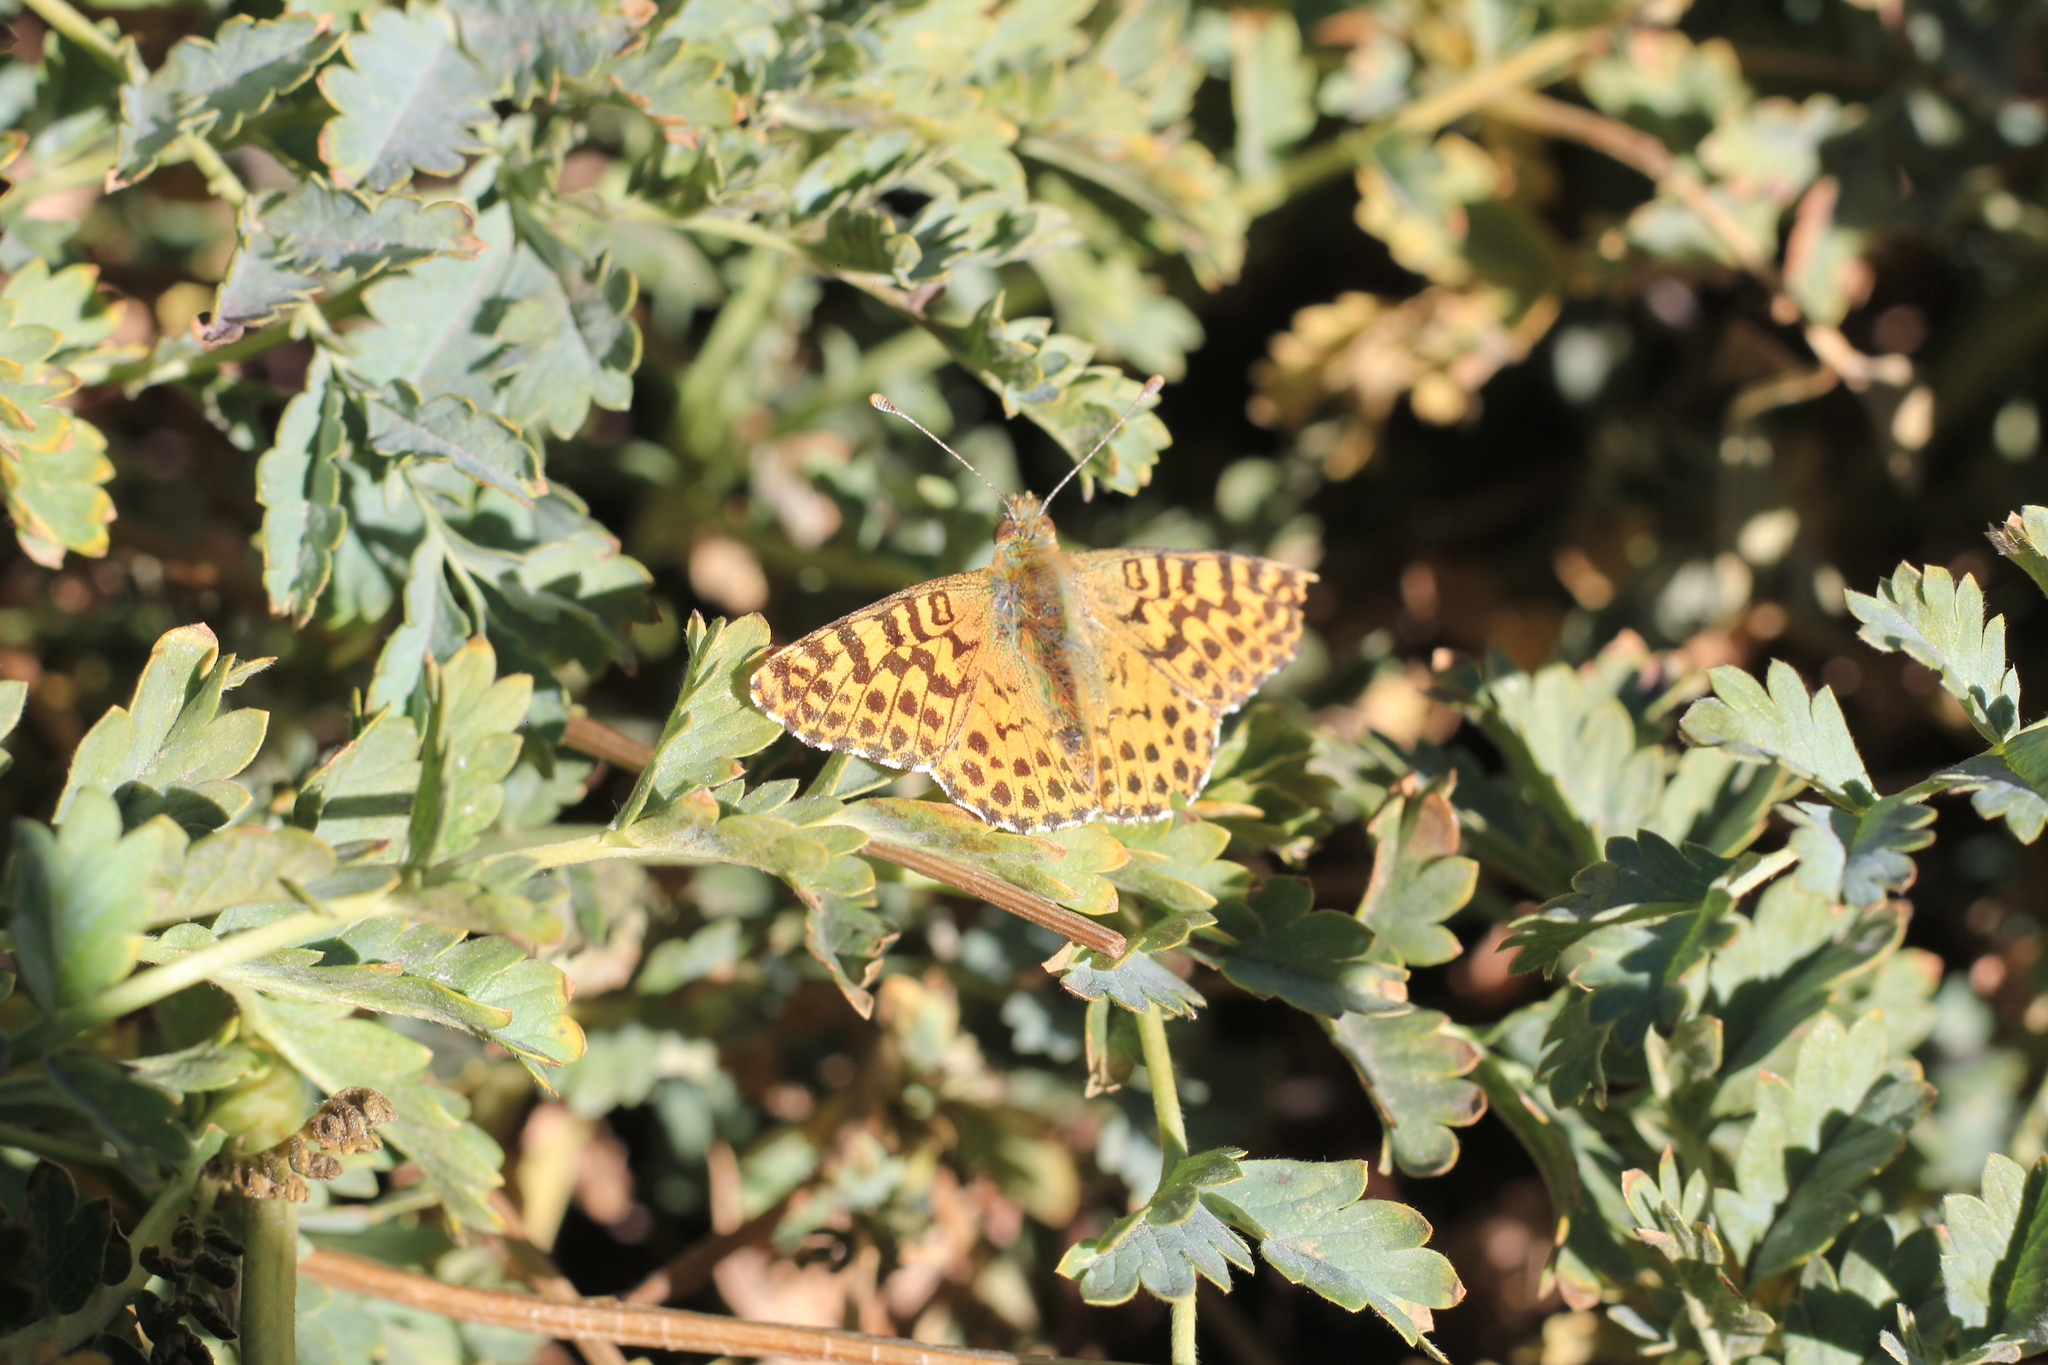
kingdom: Animalia
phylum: Arthropoda
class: Insecta
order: Lepidoptera
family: Nymphalidae
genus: Issoria
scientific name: Issoria Yramea lathonoides
